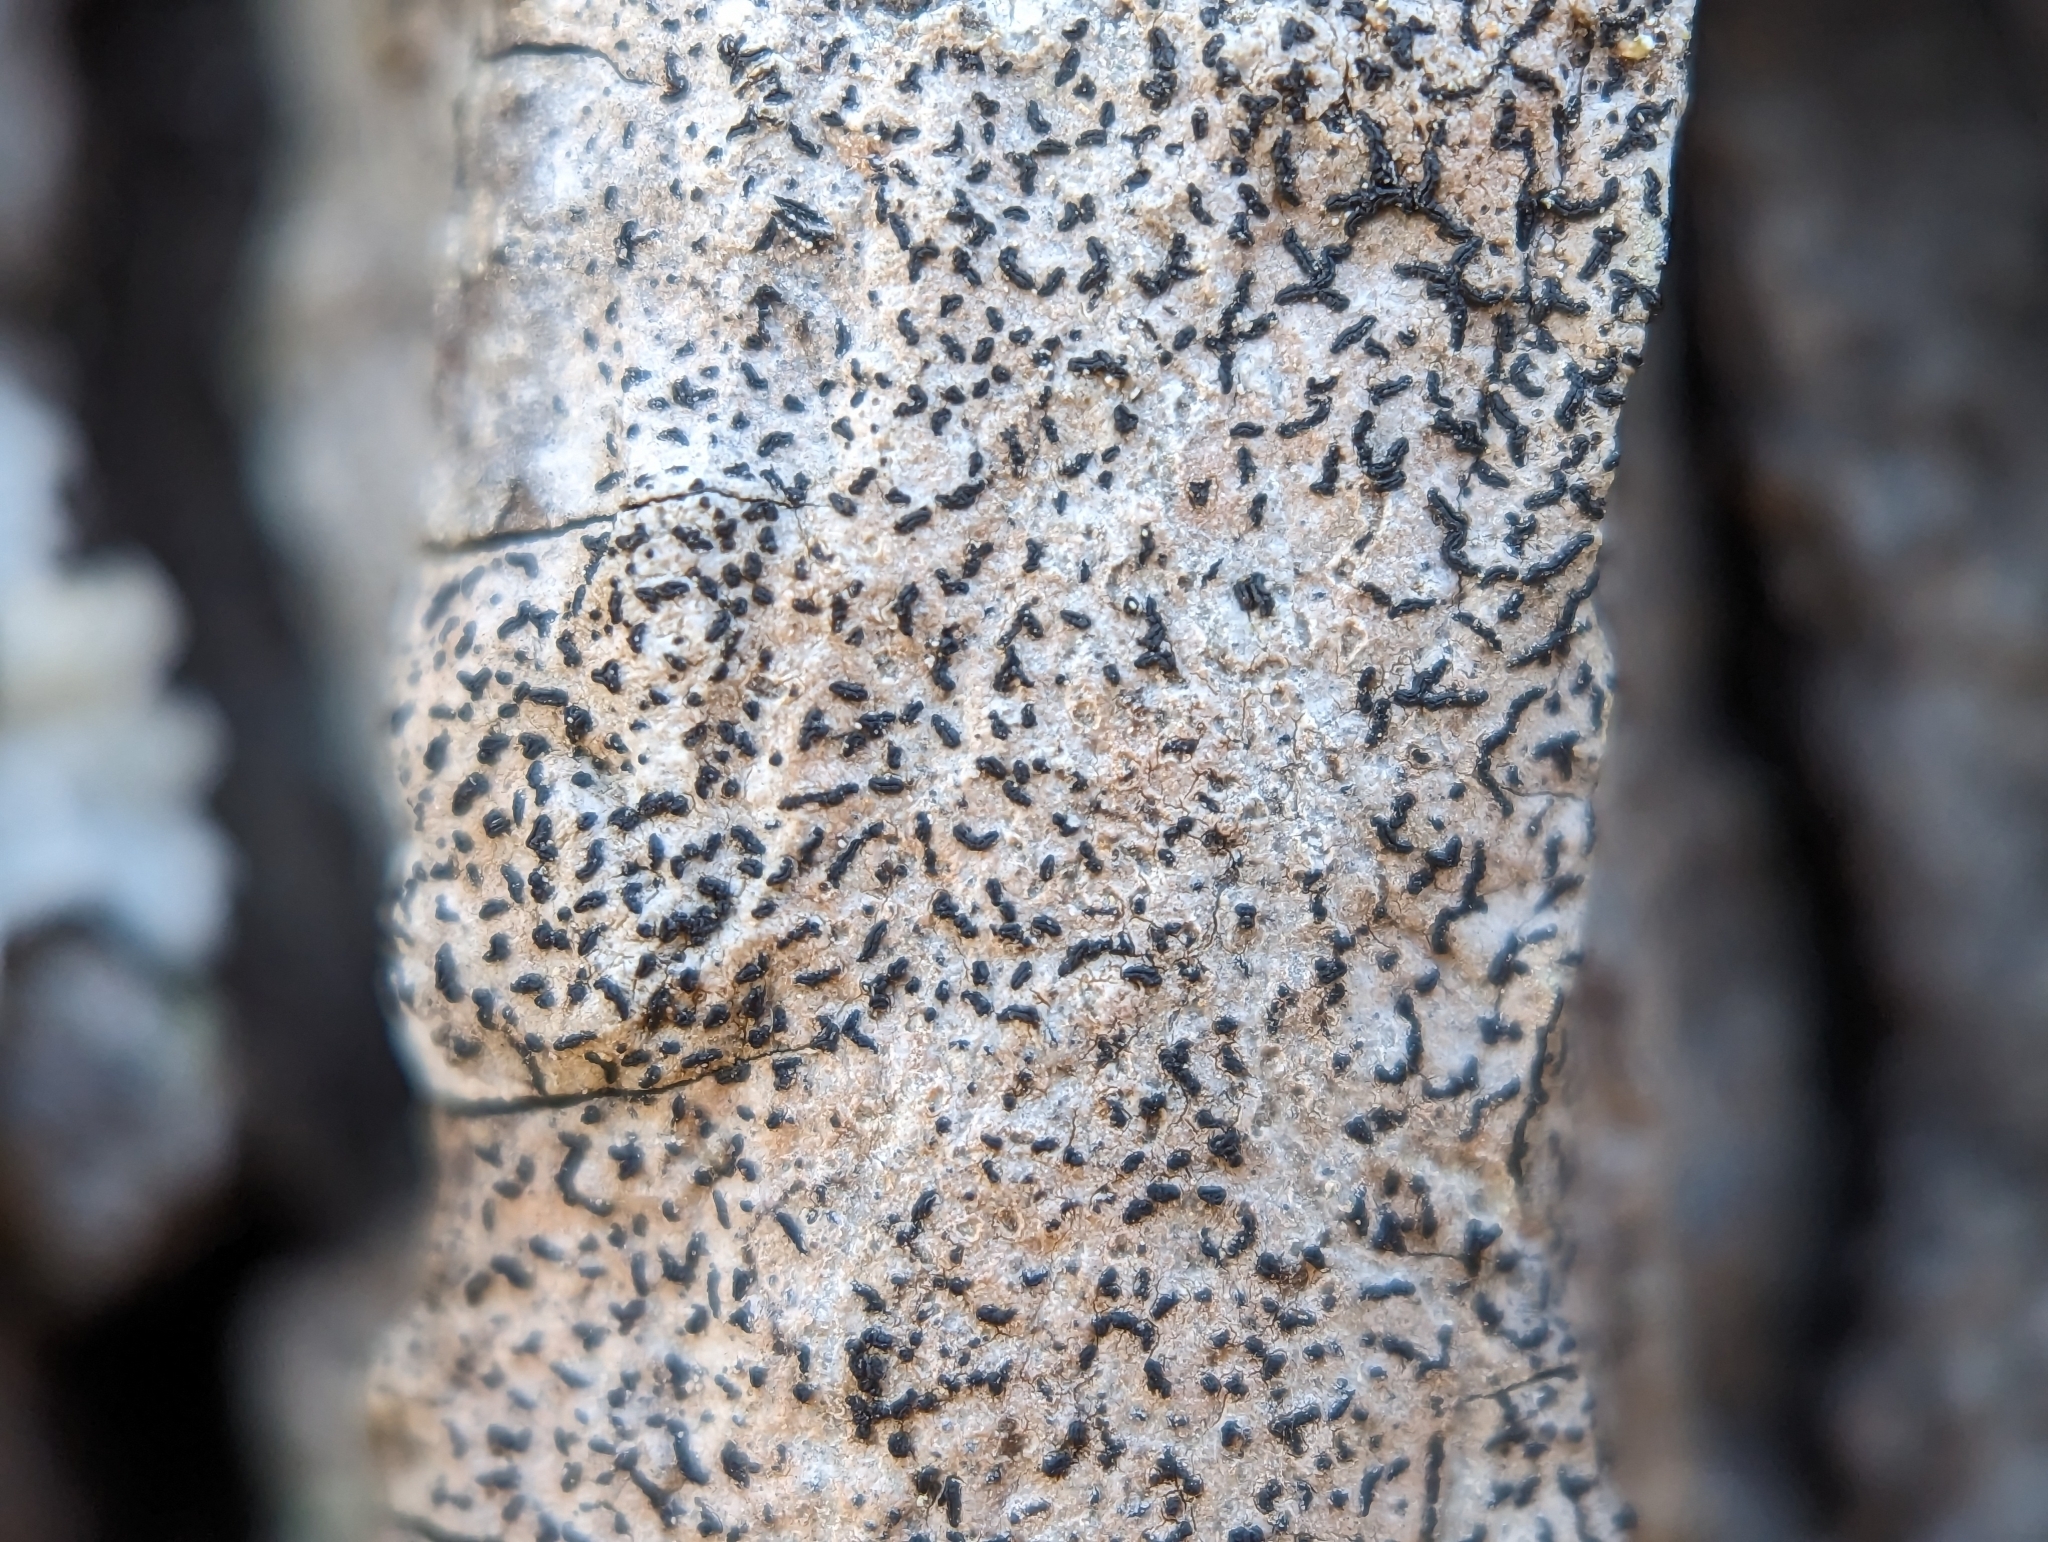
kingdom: Fungi
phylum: Ascomycota
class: Lecanoromycetes
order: Ostropales
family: Graphidaceae
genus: Opegrapha
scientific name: Opegrapha vulgata
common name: Olive scribble lichen
